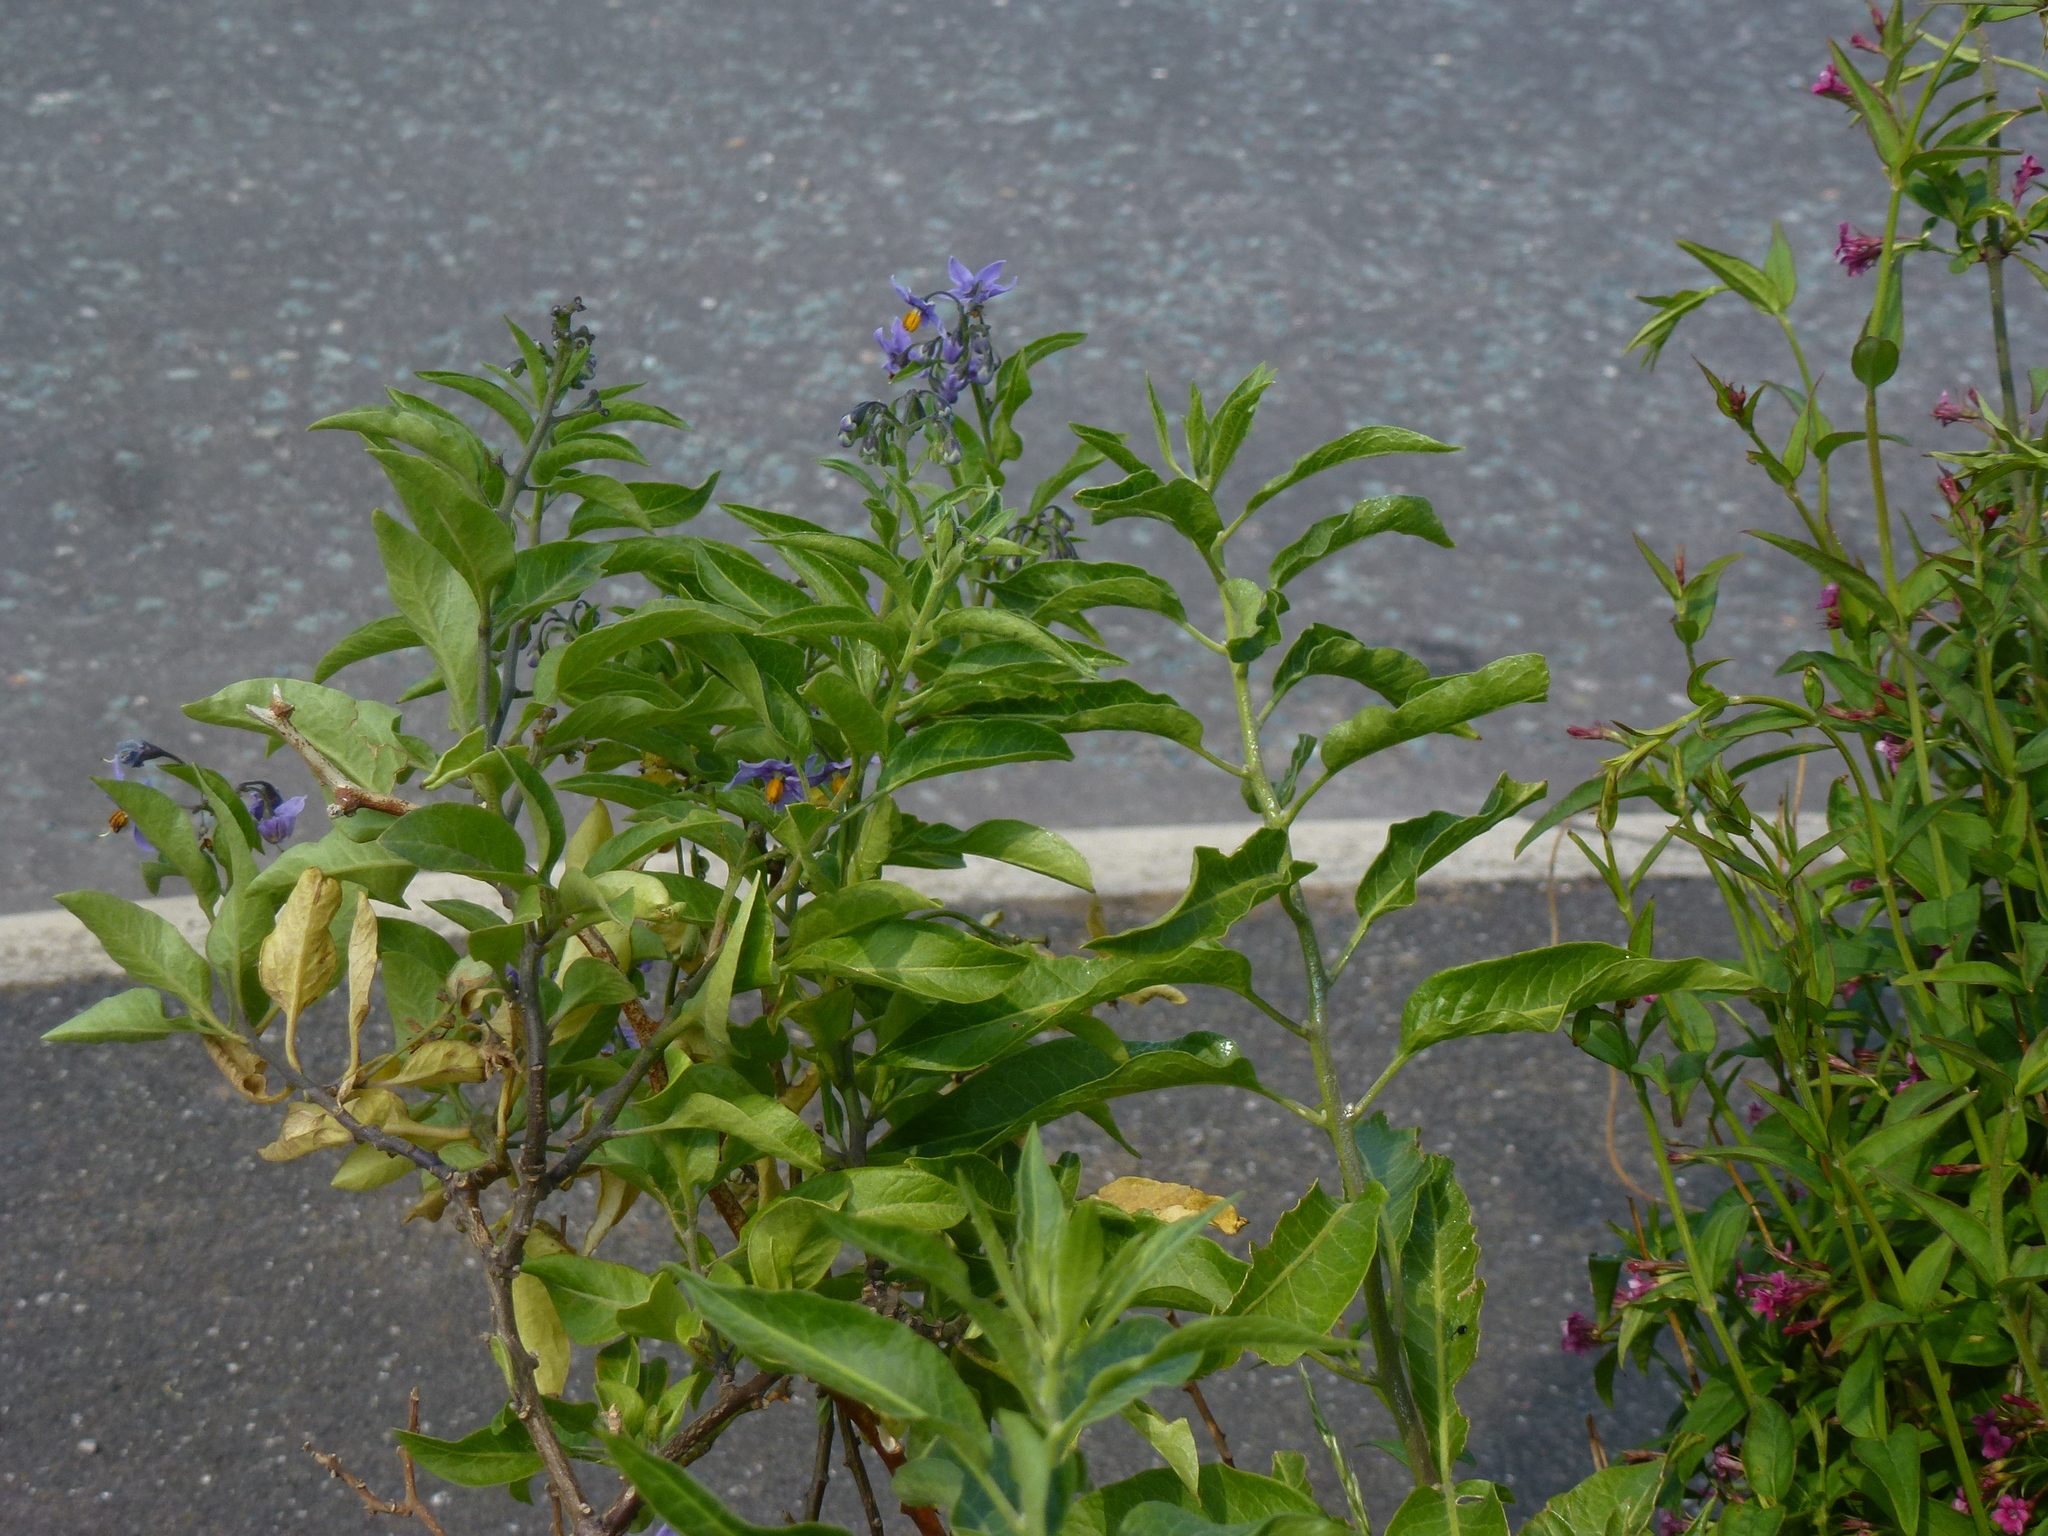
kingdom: Plantae
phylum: Tracheophyta
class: Magnoliopsida
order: Solanales
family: Solanaceae
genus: Solanum
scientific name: Solanum crispum
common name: Chilean nightshade
